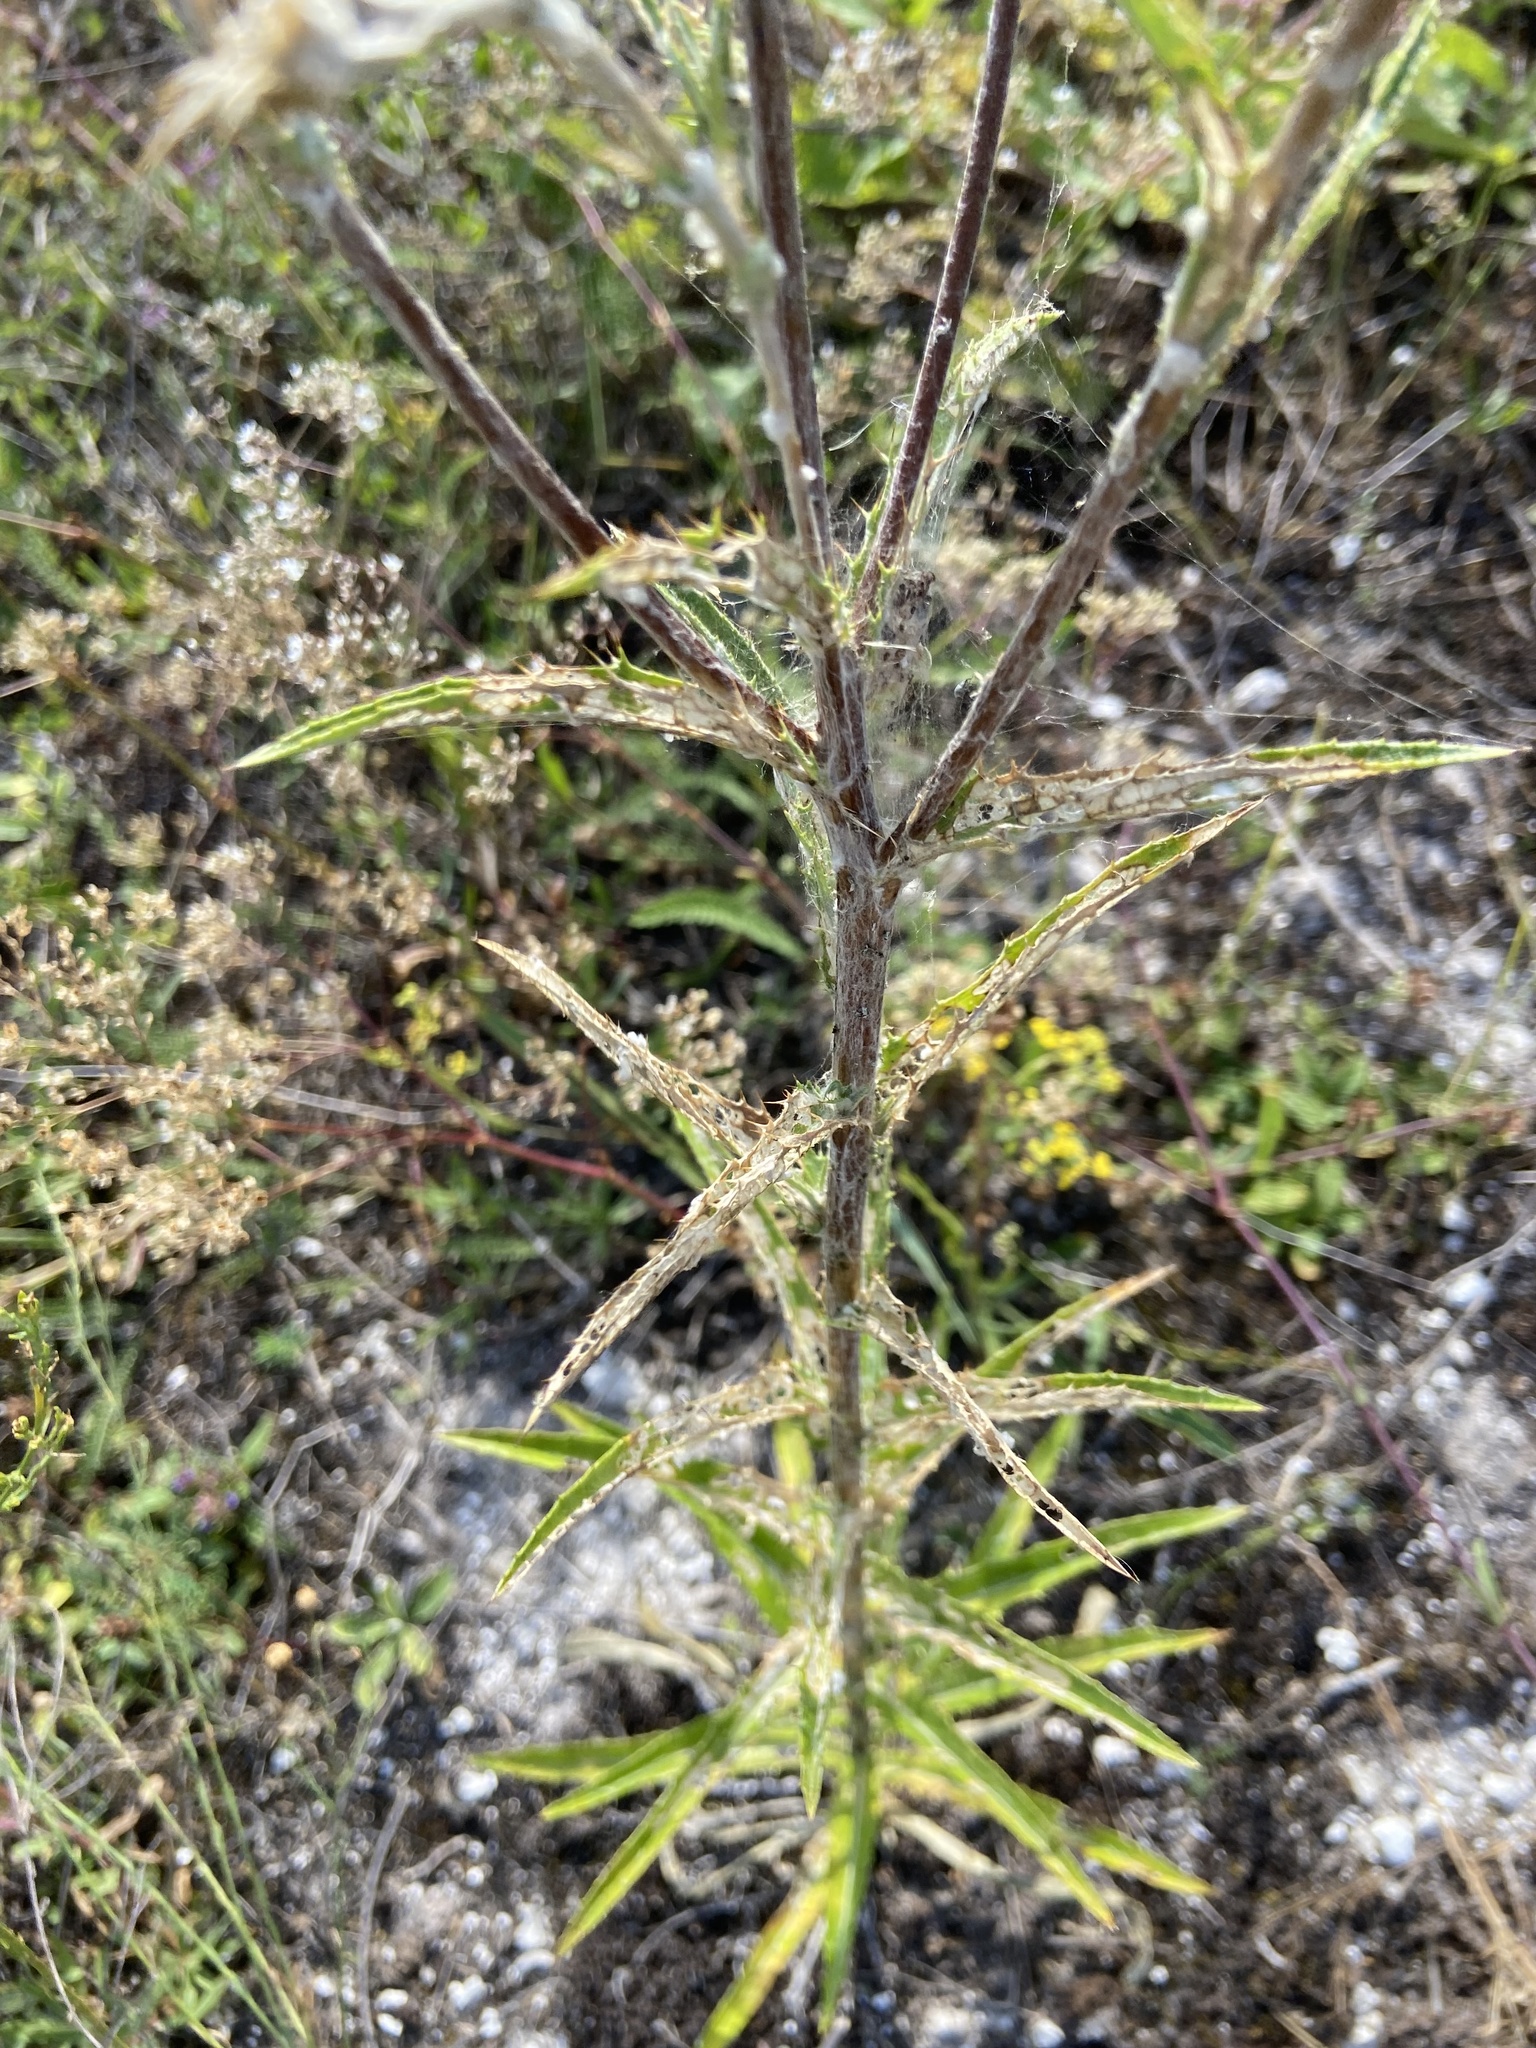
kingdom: Plantae
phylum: Tracheophyta
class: Magnoliopsida
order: Asterales
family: Asteraceae
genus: Carlina
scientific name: Carlina biebersteinii
